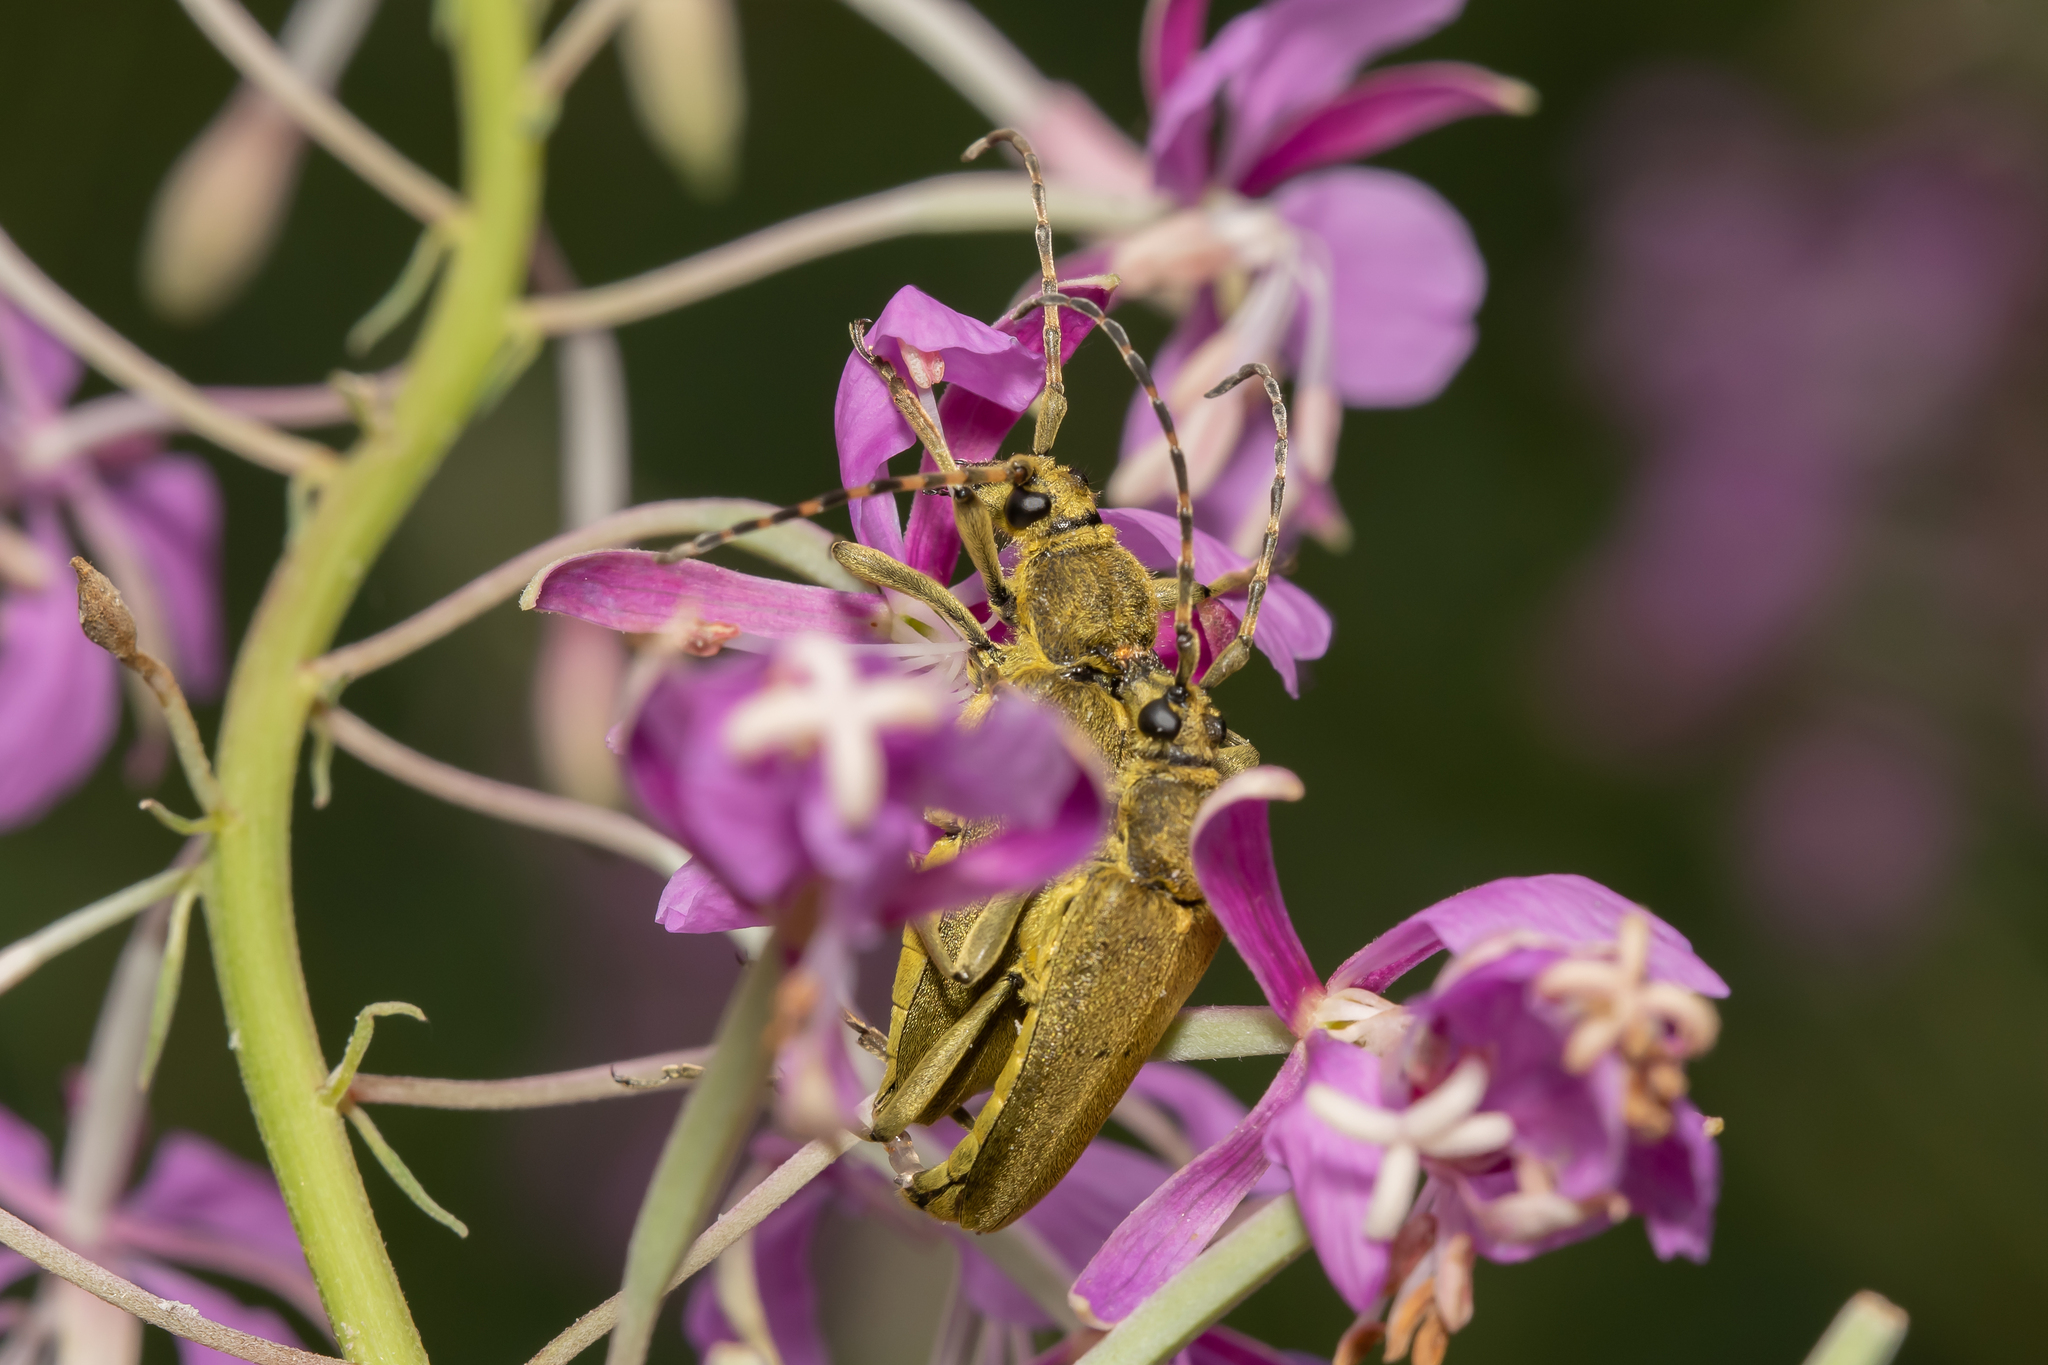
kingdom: Animalia
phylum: Arthropoda
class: Insecta
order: Coleoptera
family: Cerambycidae
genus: Lepturobosca
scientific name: Lepturobosca virens
